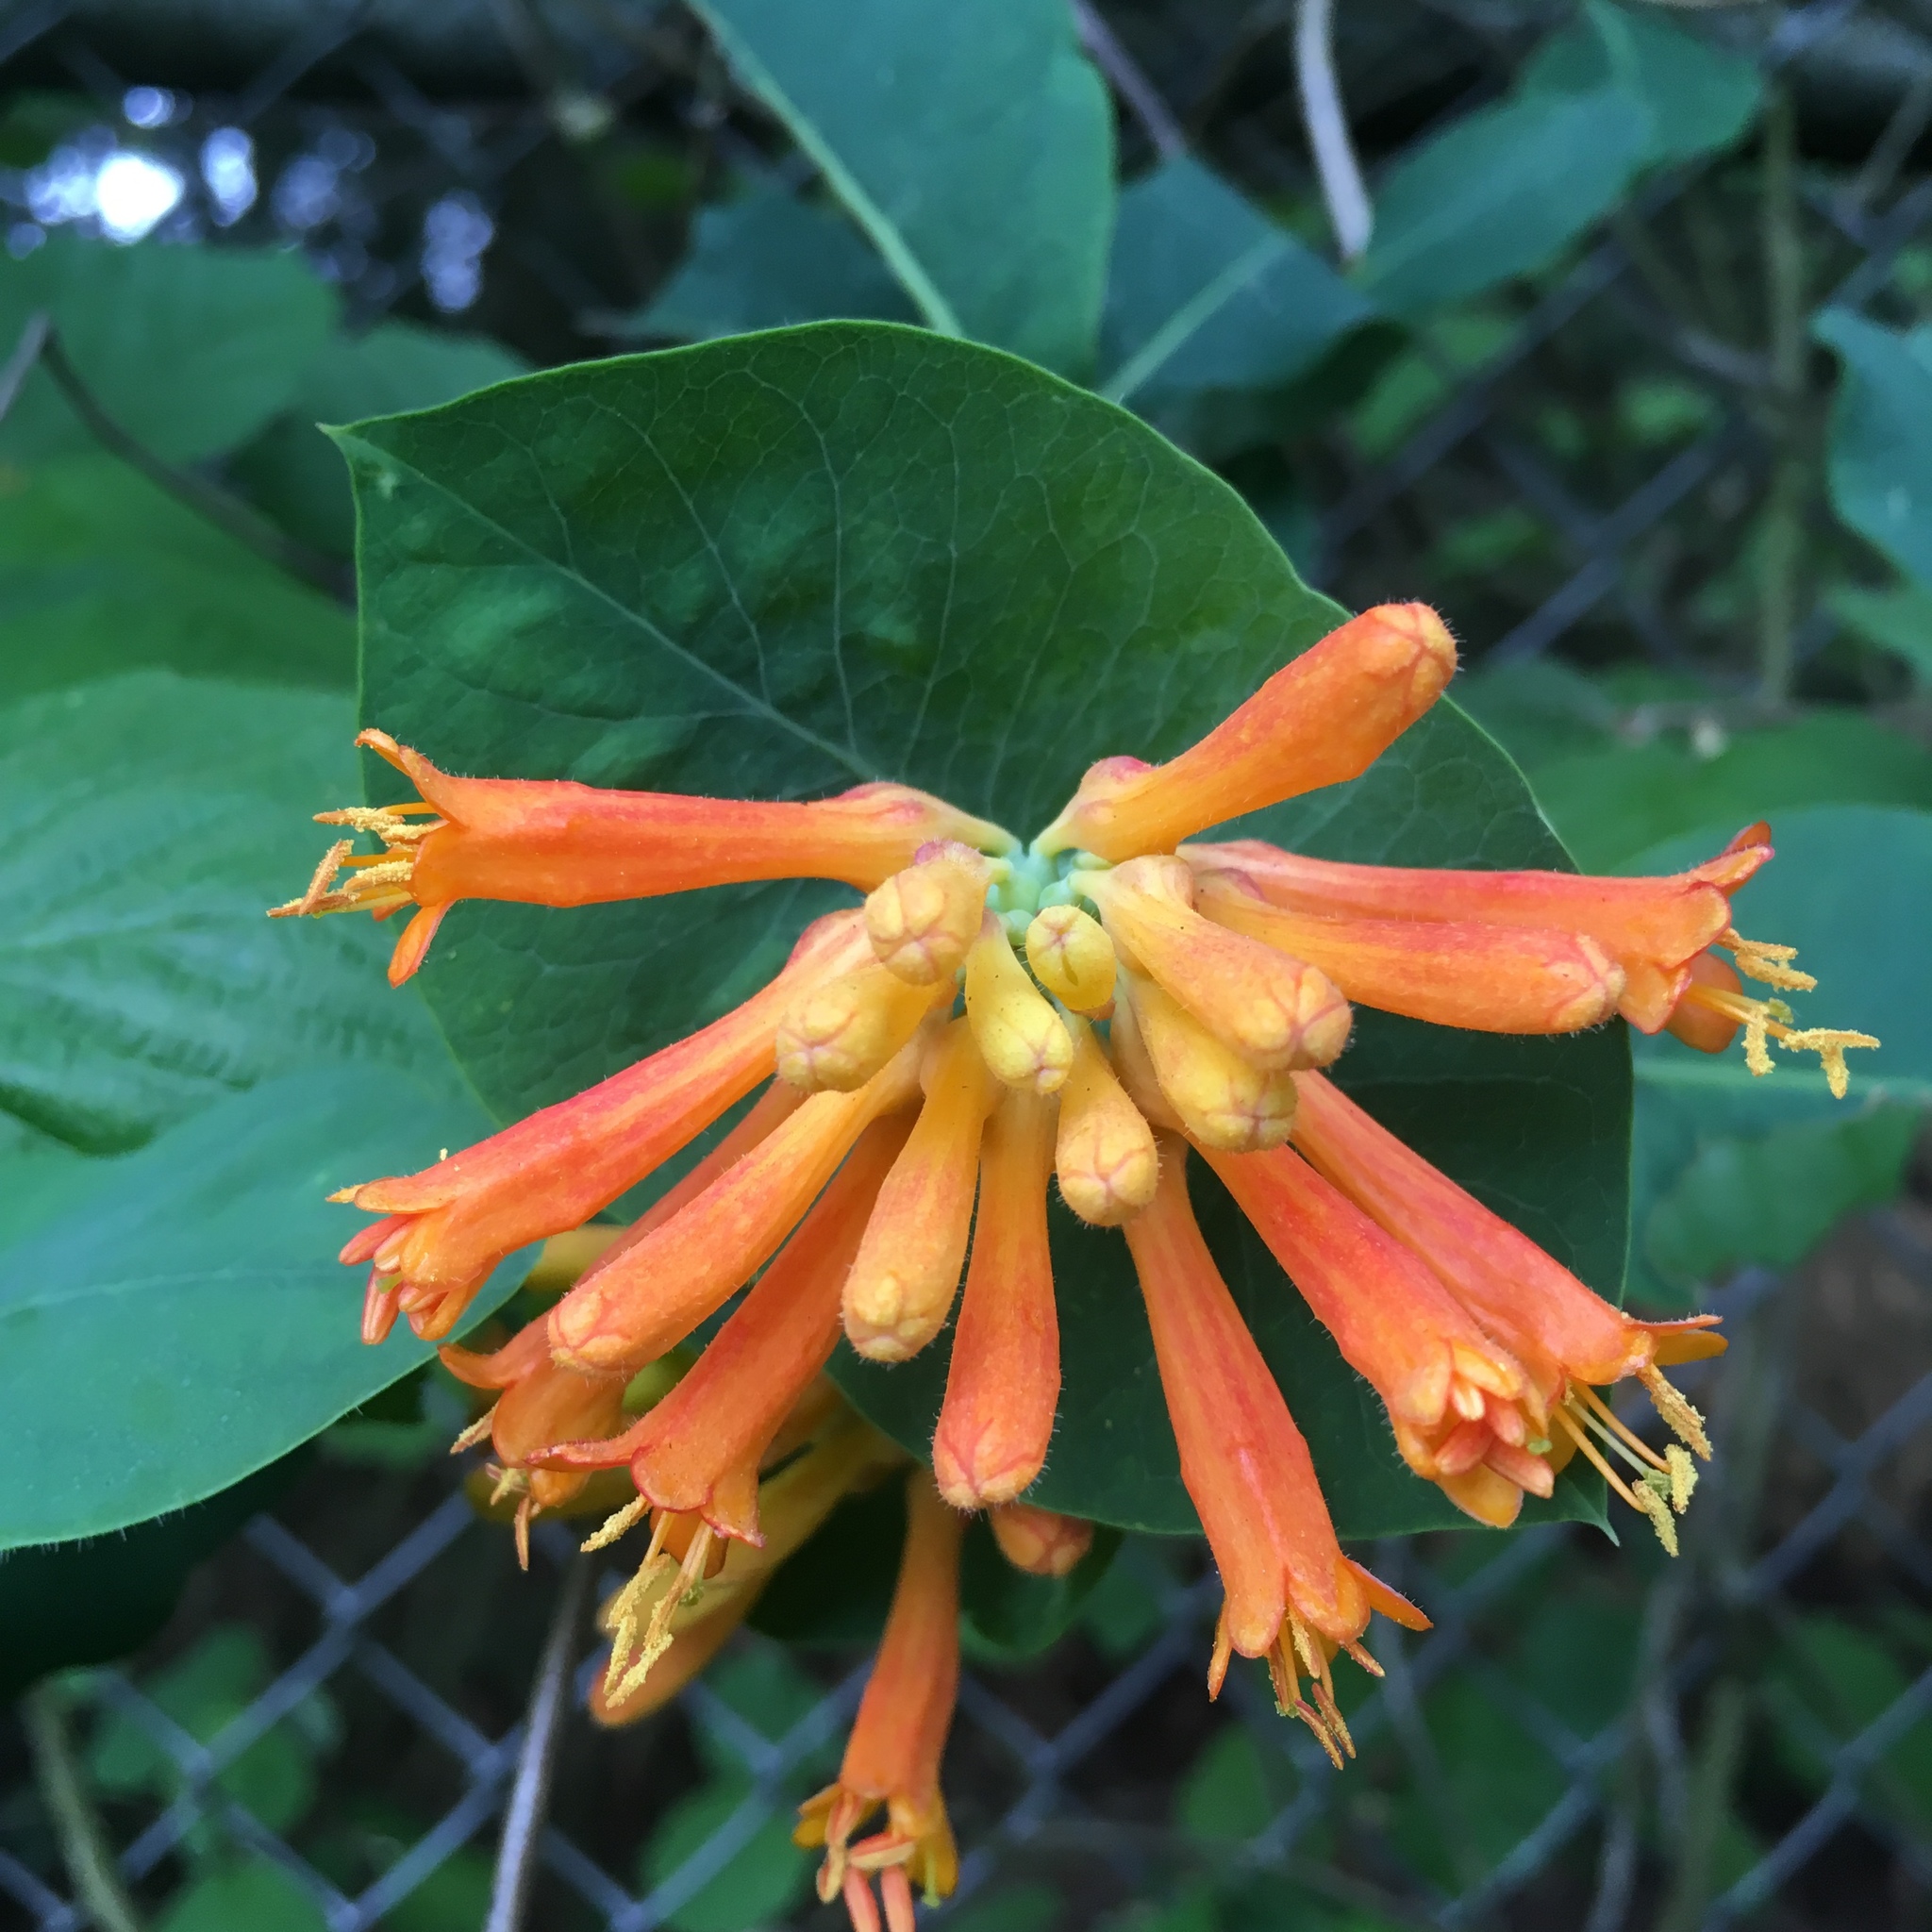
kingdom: Plantae
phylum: Tracheophyta
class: Magnoliopsida
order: Dipsacales
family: Caprifoliaceae
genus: Lonicera
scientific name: Lonicera ciliosa
